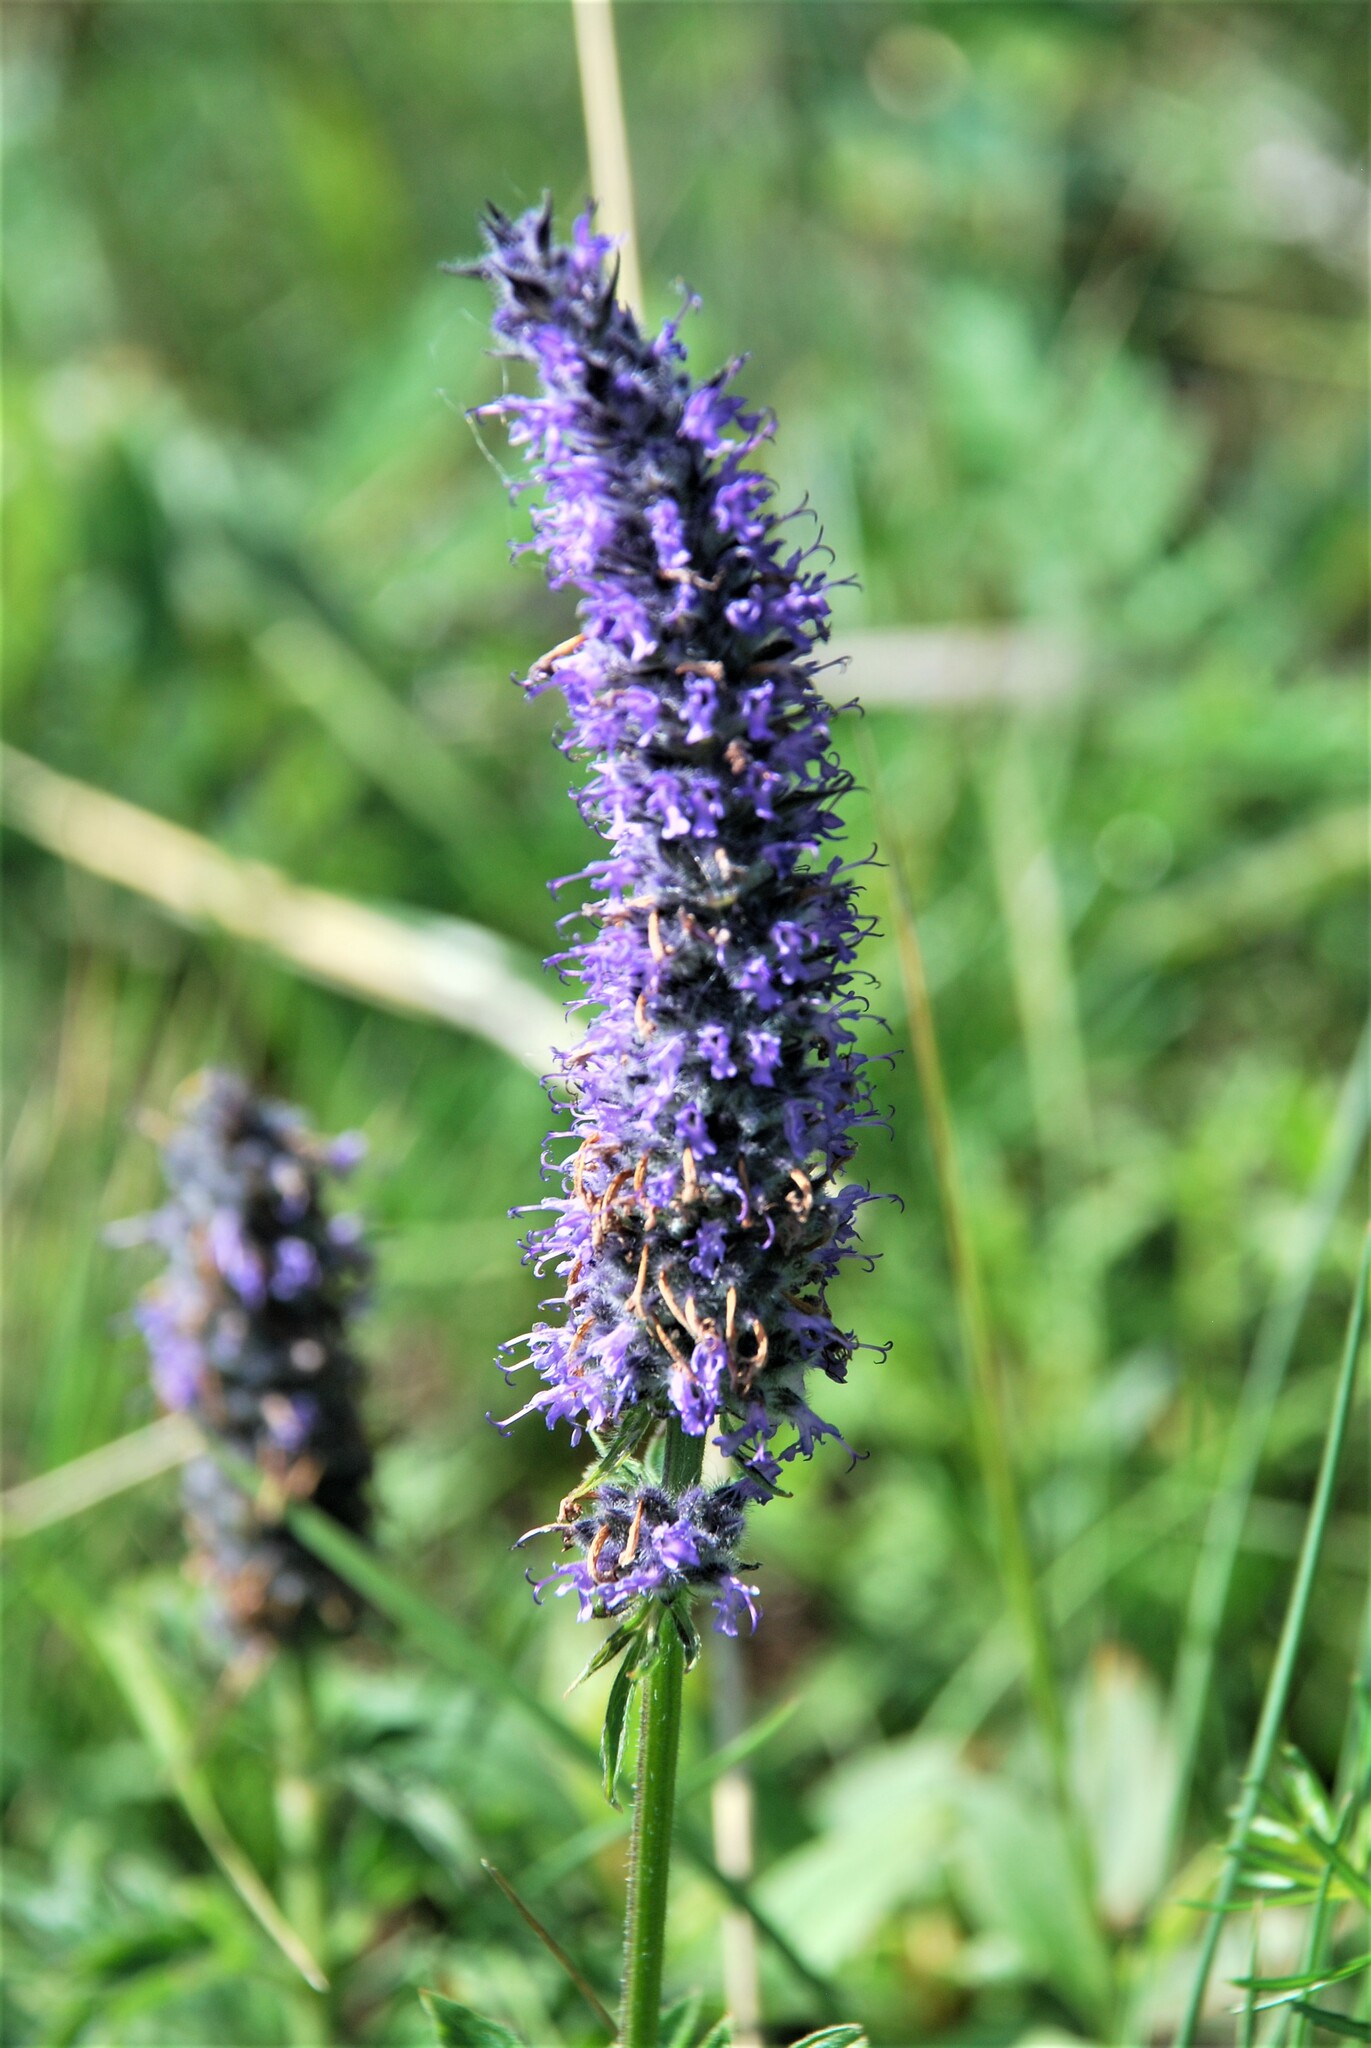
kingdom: Plantae
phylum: Tracheophyta
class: Magnoliopsida
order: Lamiales
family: Lamiaceae
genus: Nepeta
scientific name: Nepeta multifida
